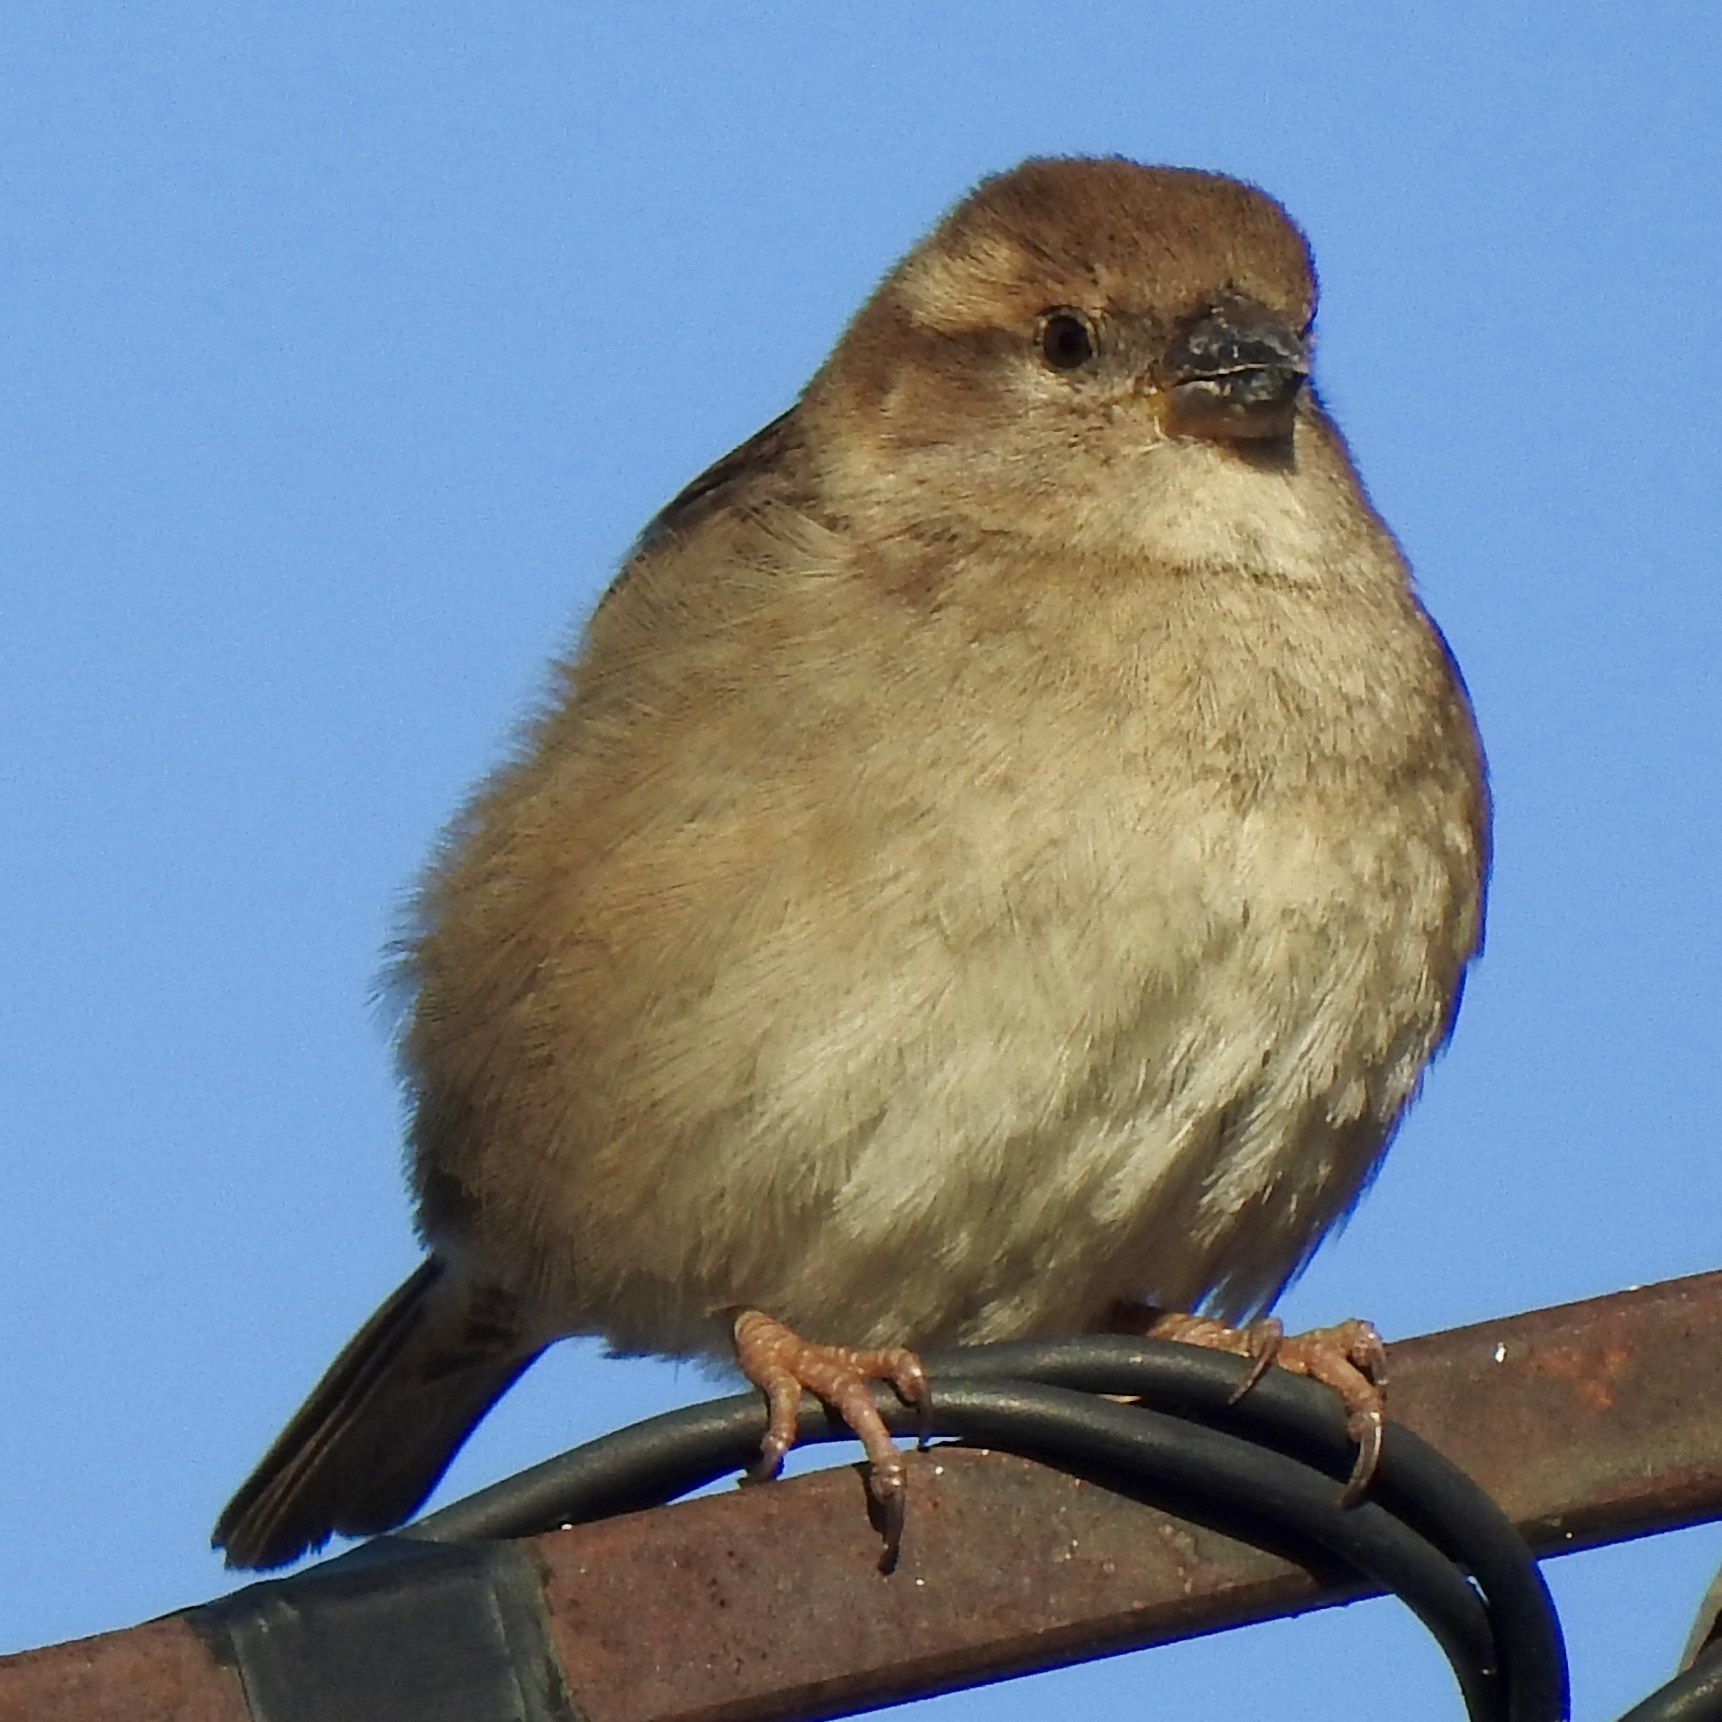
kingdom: Animalia
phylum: Chordata
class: Aves
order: Passeriformes
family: Passeridae
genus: Passer
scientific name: Passer domesticus
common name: House sparrow
